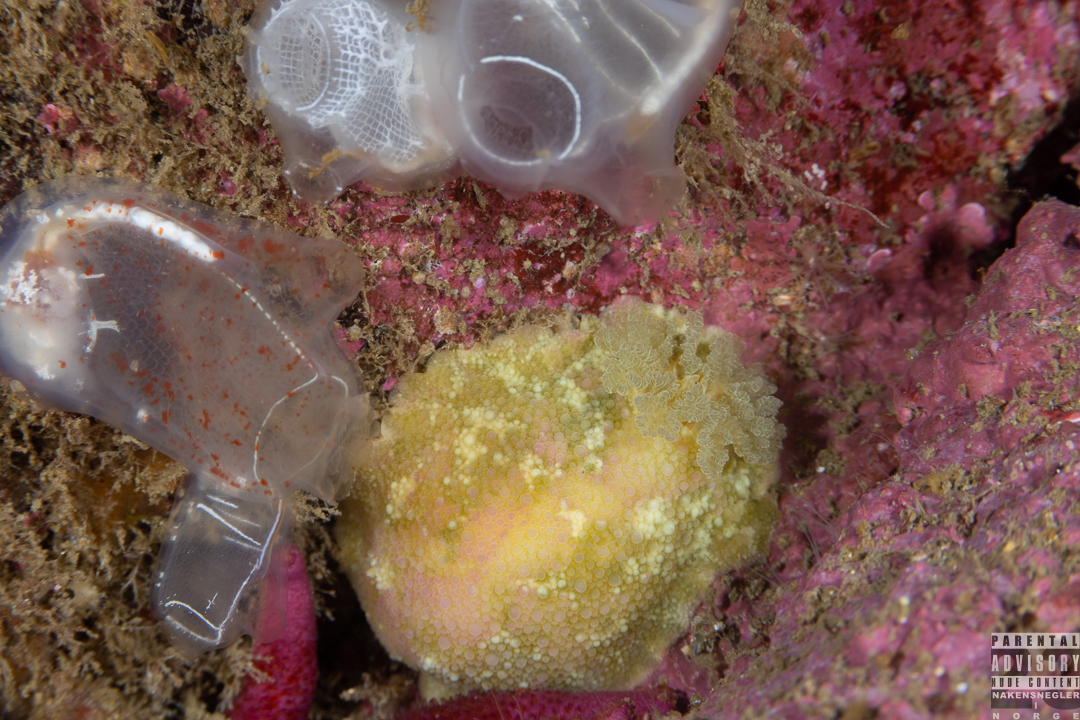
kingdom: Animalia
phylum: Mollusca
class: Gastropoda
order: Nudibranchia
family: Dorididae
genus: Doris
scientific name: Doris pseudoargus
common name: Sea lemon
